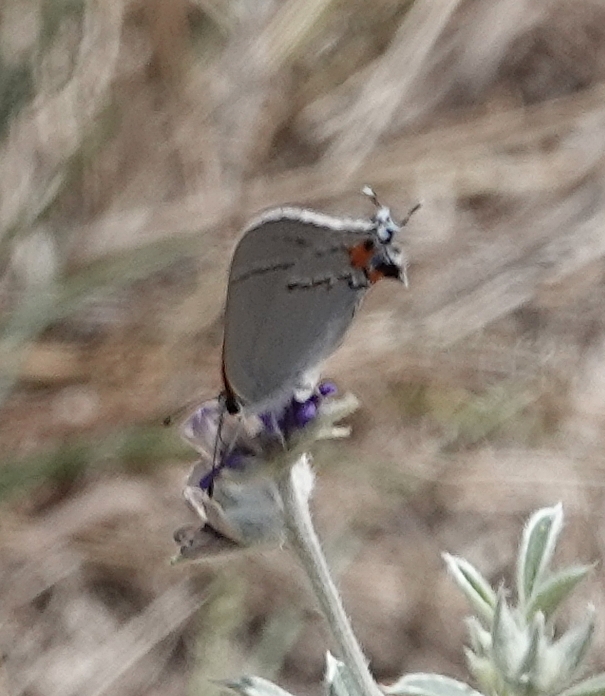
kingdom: Animalia
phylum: Arthropoda
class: Insecta
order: Lepidoptera
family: Lycaenidae
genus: Strymon
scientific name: Strymon melinus
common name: Gray hairstreak
